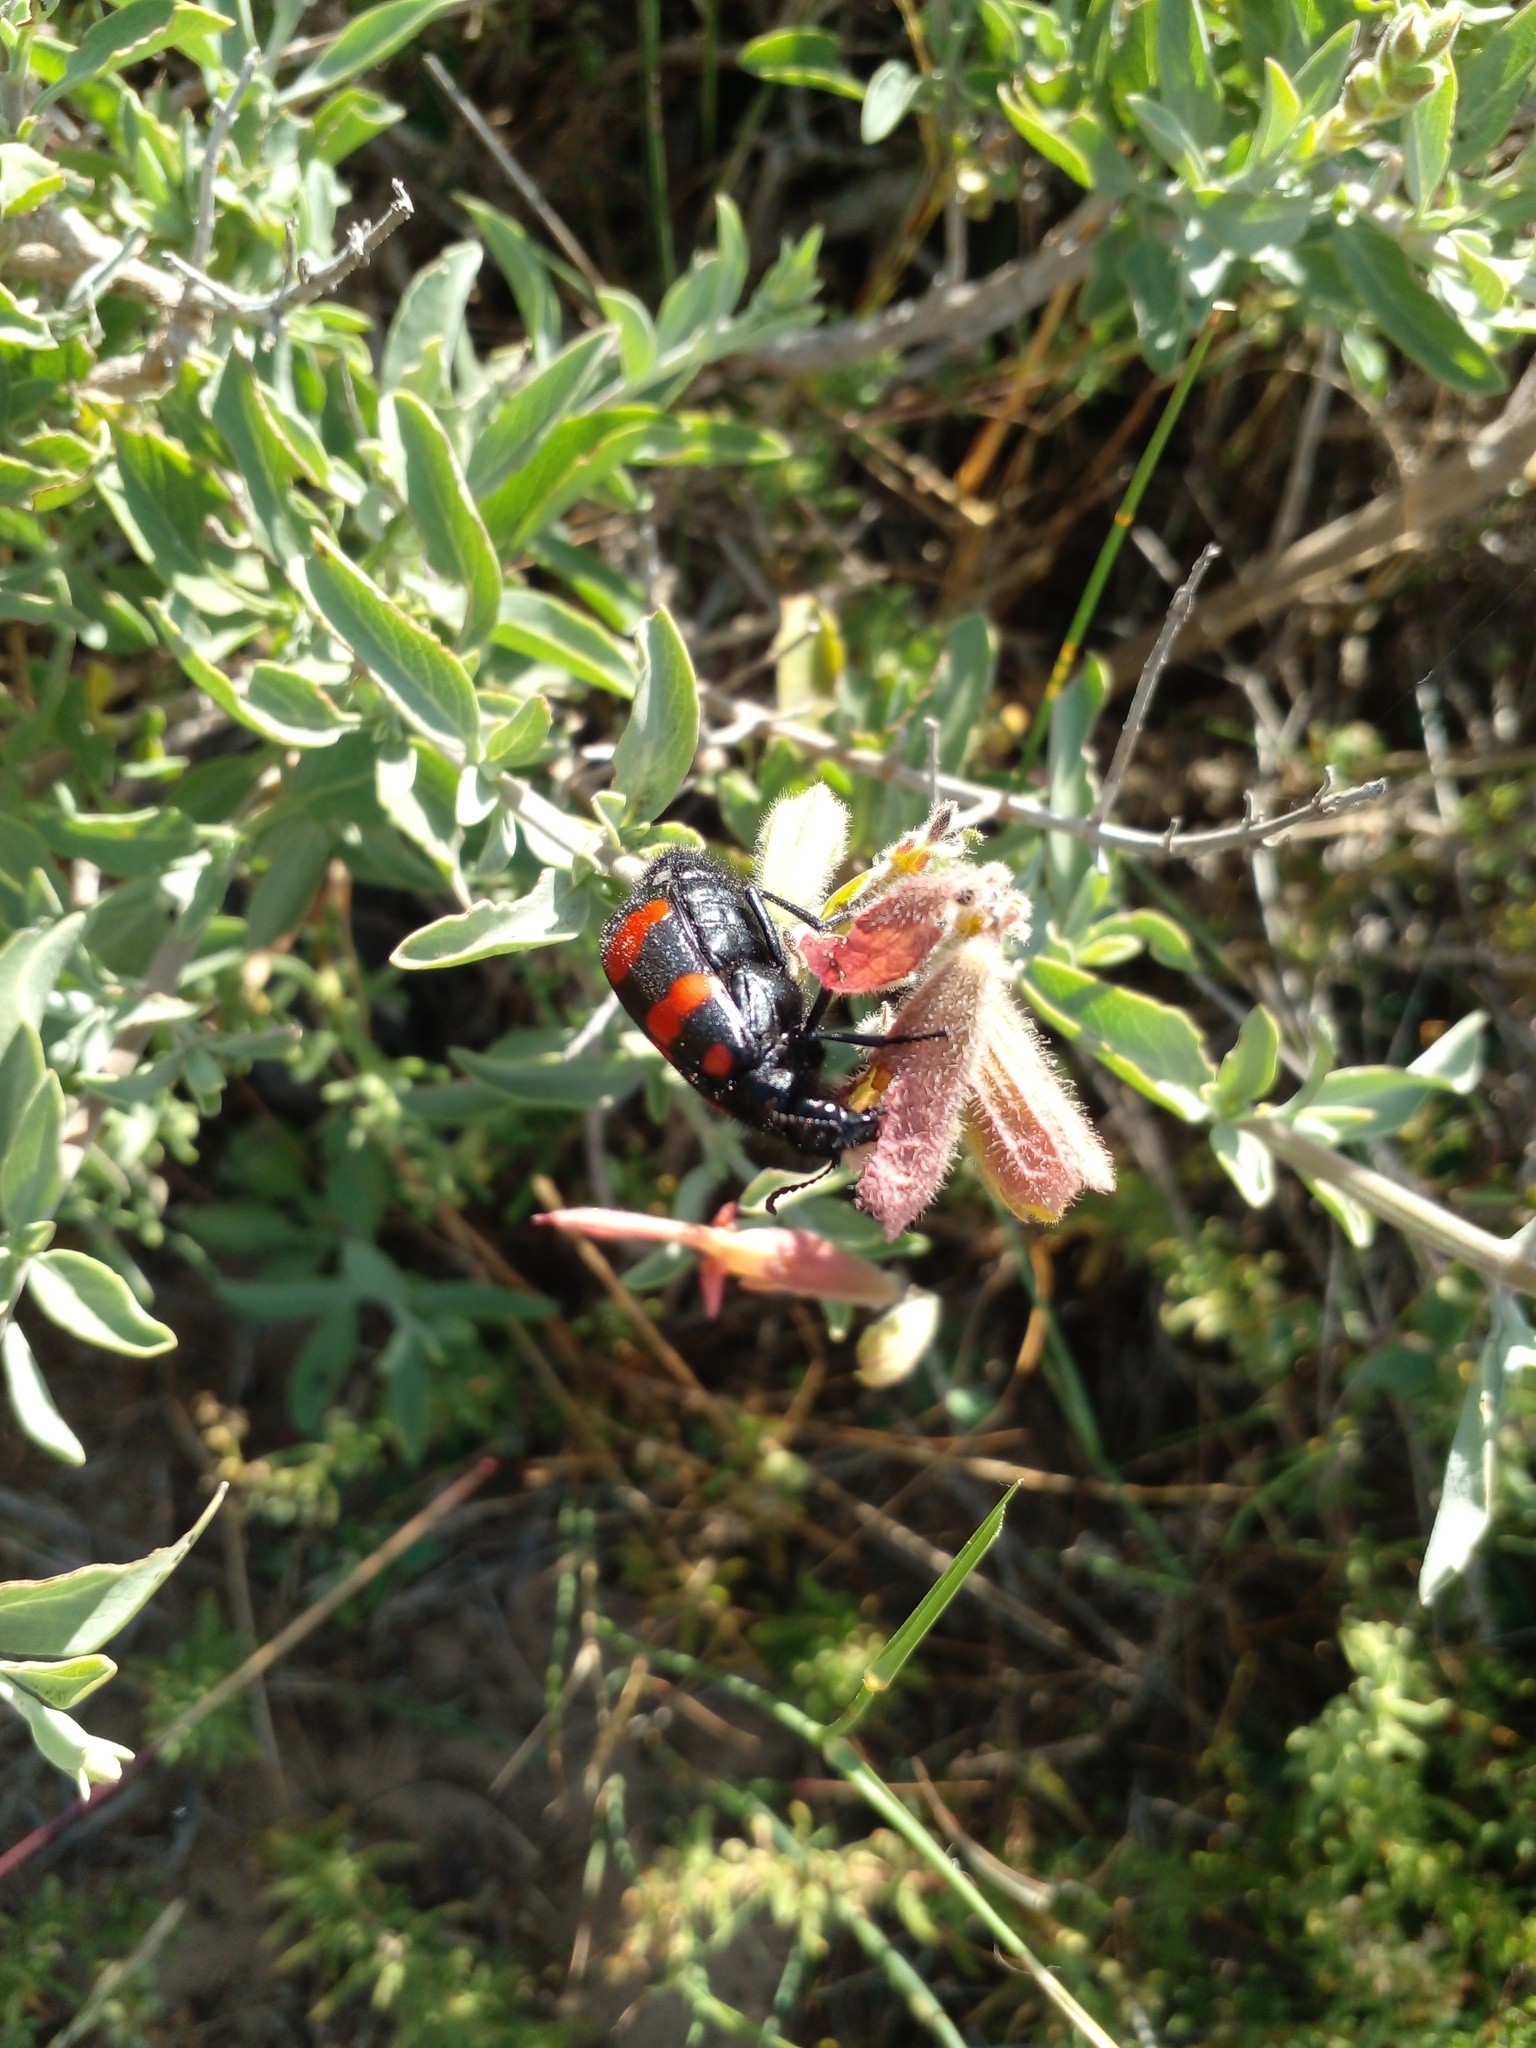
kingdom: Animalia
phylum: Arthropoda
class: Insecta
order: Coleoptera
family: Meloidae
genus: Hycleus
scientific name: Hycleus lavaterae
